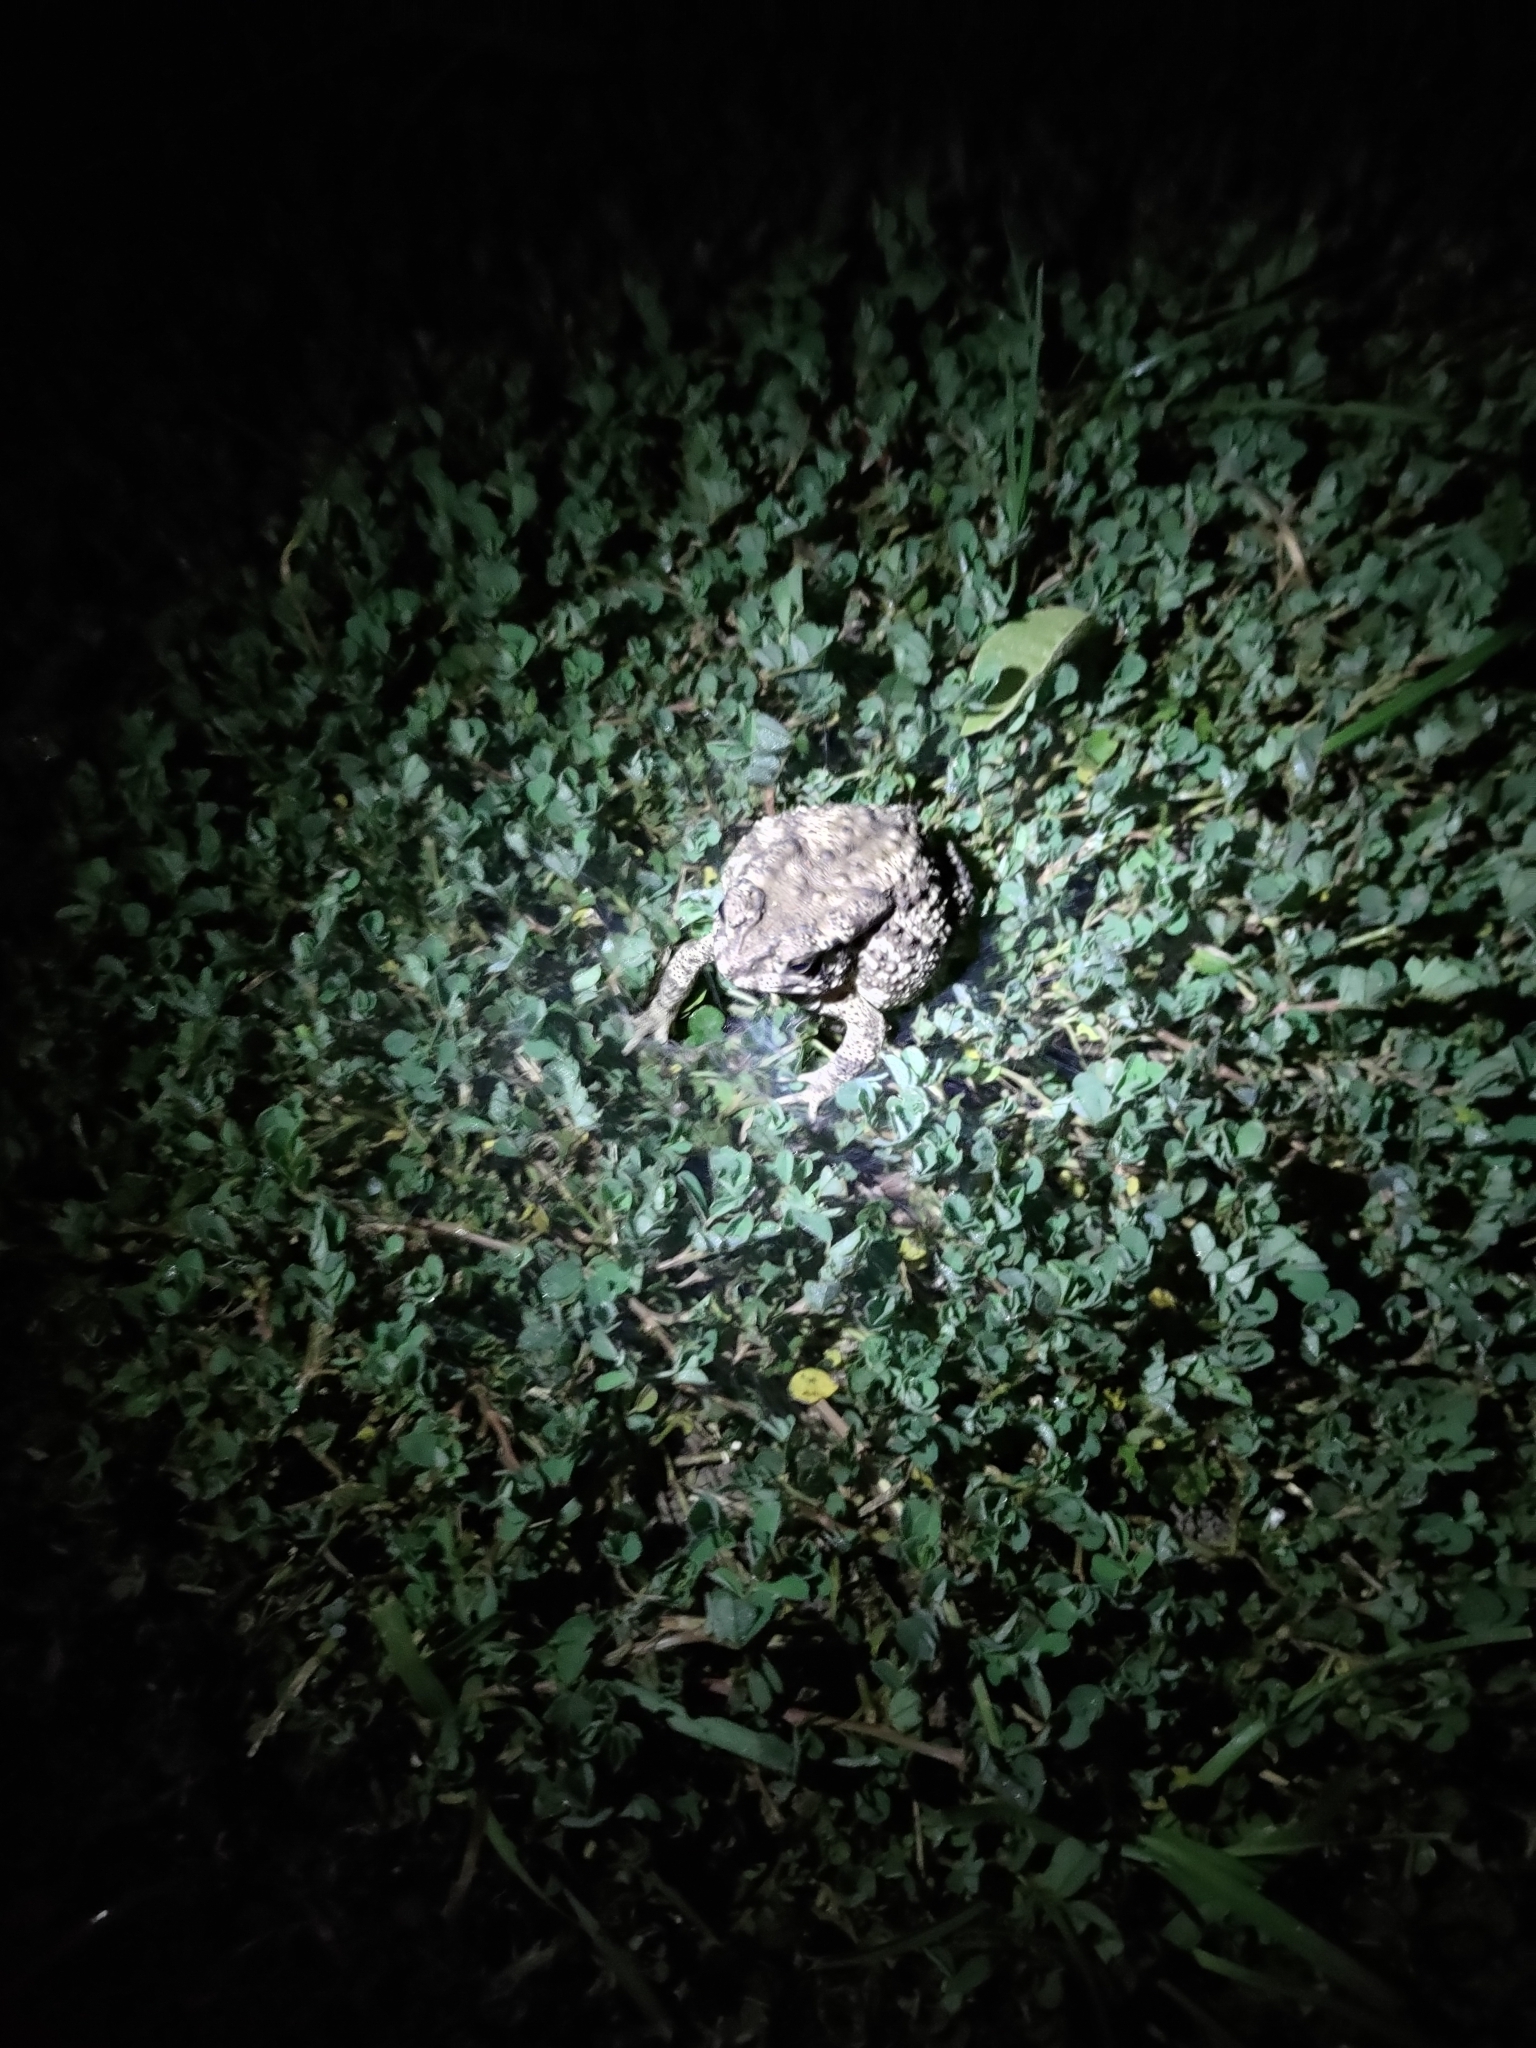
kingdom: Animalia
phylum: Chordata
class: Amphibia
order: Anura
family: Bufonidae
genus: Duttaphrynus
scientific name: Duttaphrynus melanostictus
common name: Common sunda toad
